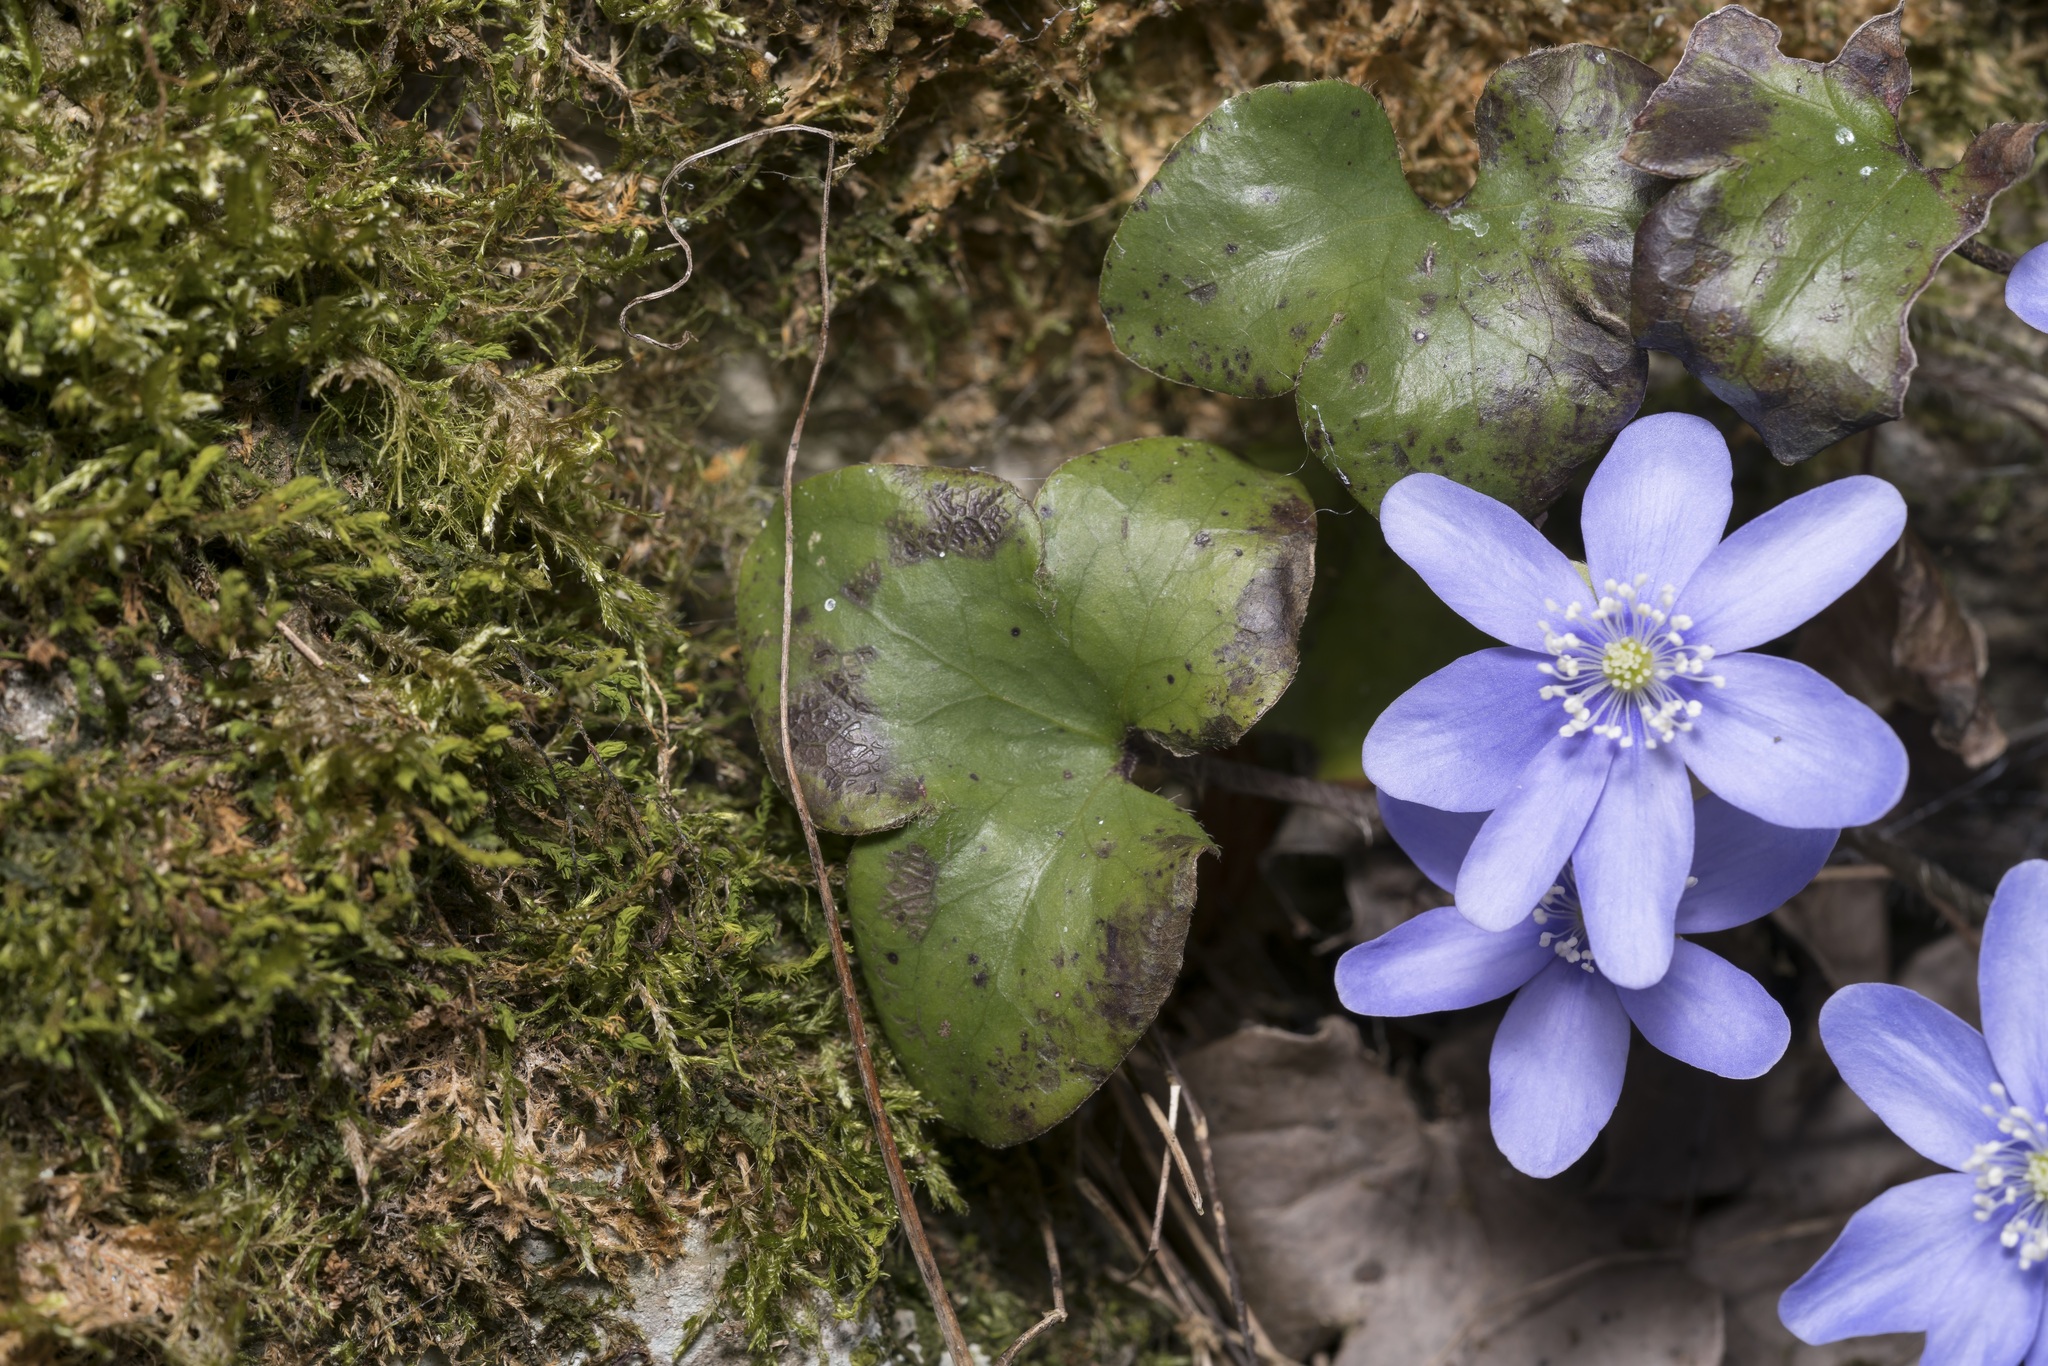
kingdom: Plantae
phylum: Tracheophyta
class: Magnoliopsida
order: Ranunculales
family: Ranunculaceae
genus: Hepatica
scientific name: Hepatica nobilis
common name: Liverleaf
